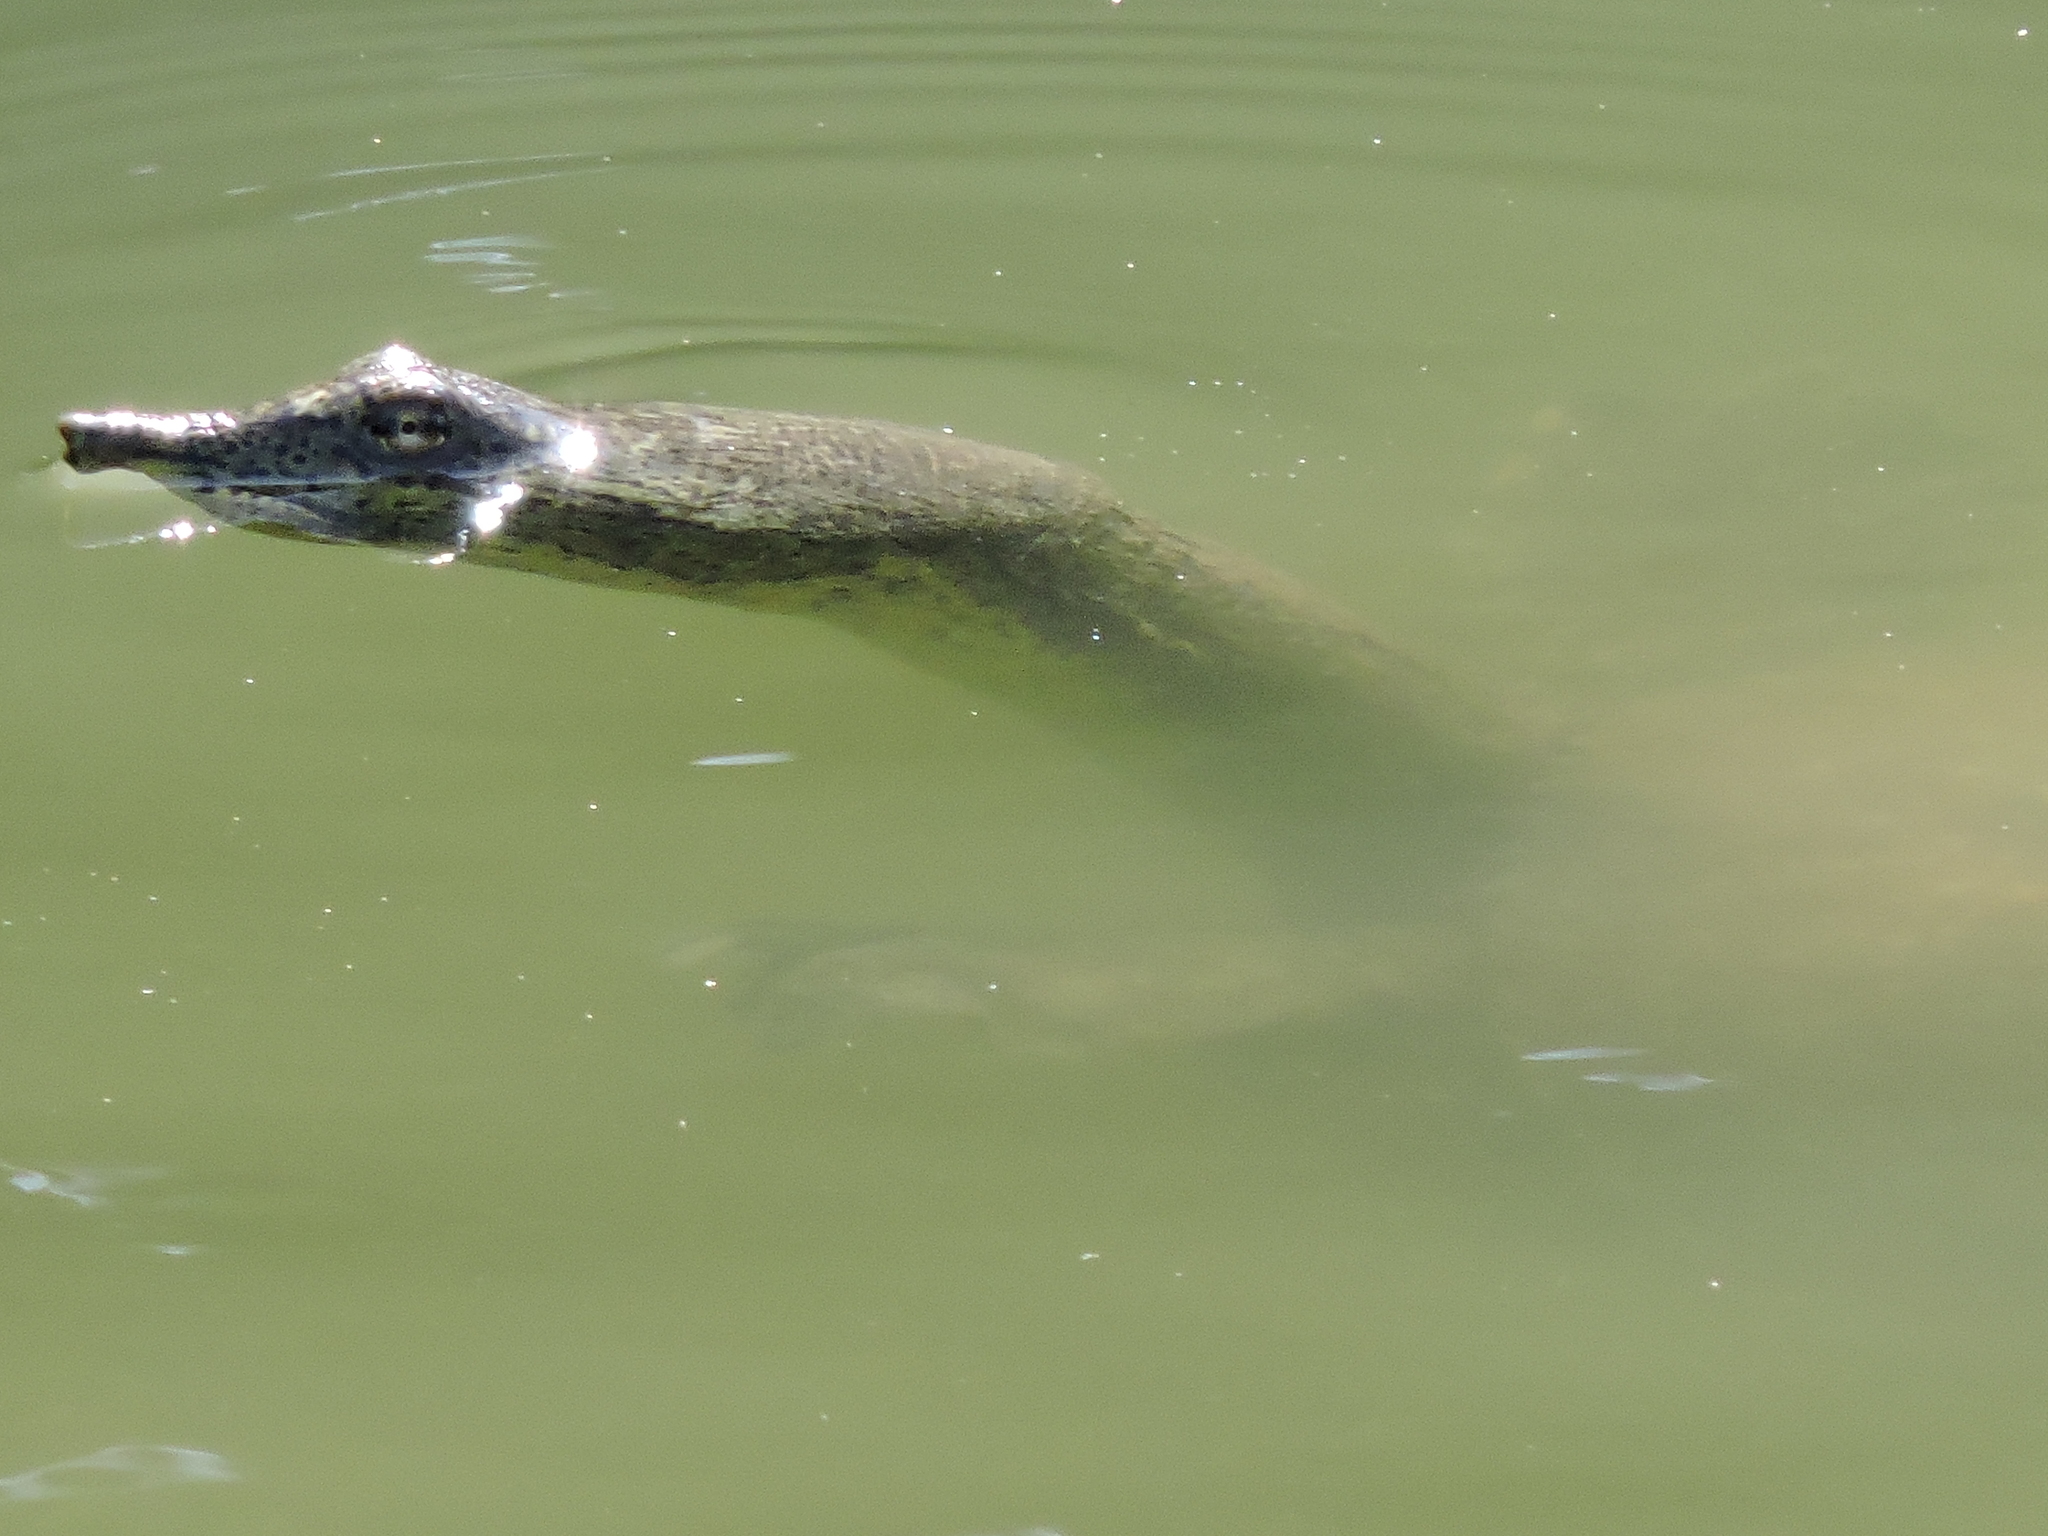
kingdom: Animalia
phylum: Chordata
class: Testudines
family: Trionychidae
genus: Apalone
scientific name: Apalone spinifera
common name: Spiny softshell turtle
